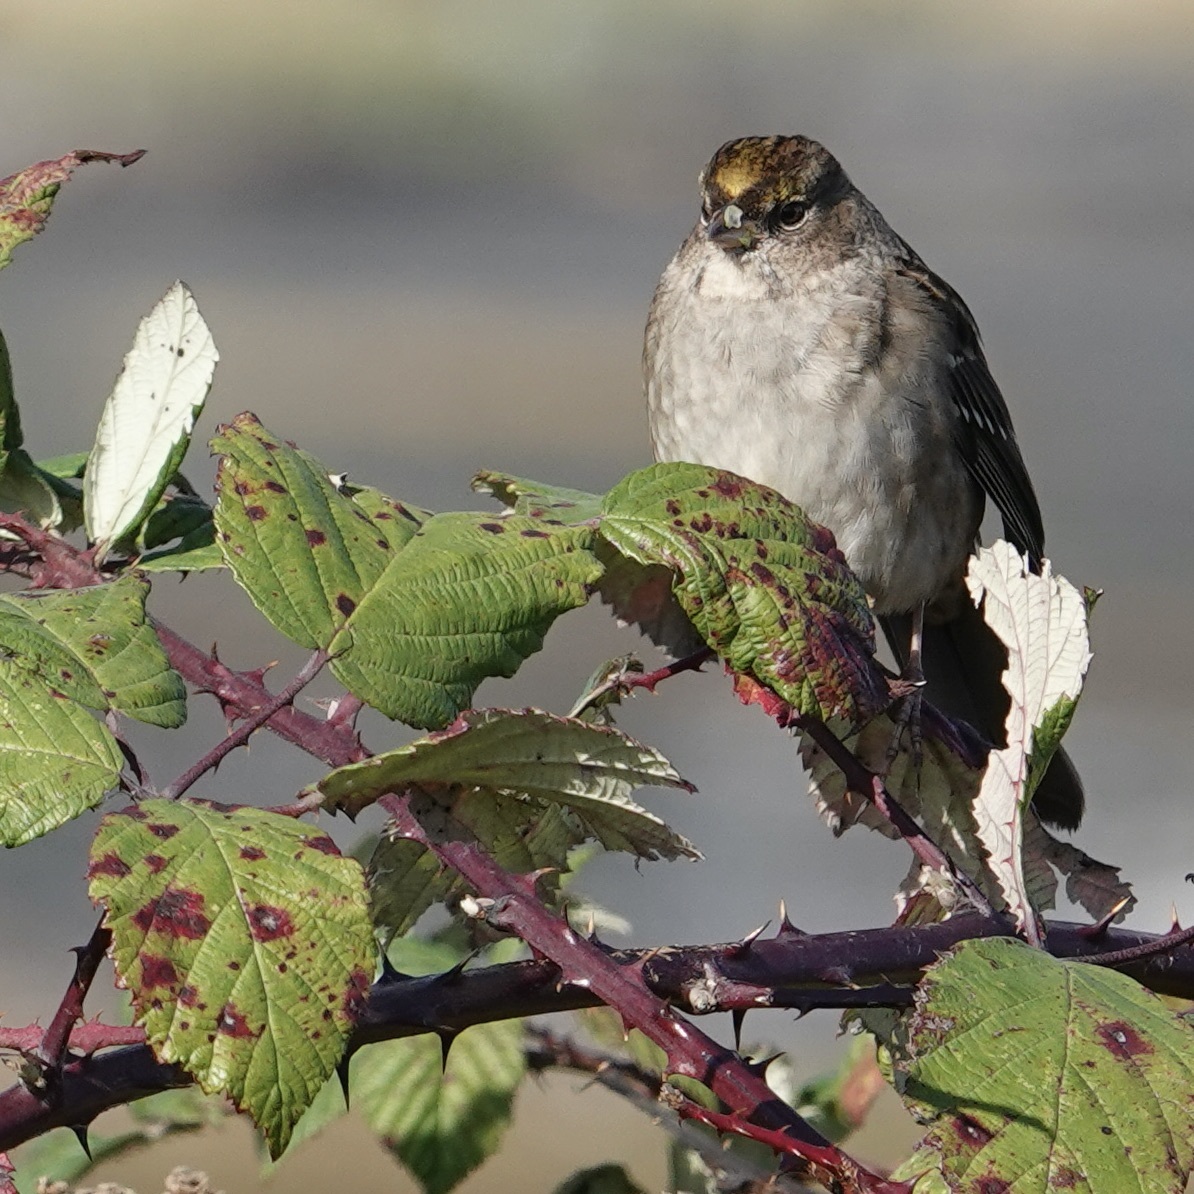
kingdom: Animalia
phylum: Chordata
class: Aves
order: Passeriformes
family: Passerellidae
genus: Zonotrichia
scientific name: Zonotrichia atricapilla
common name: Golden-crowned sparrow
